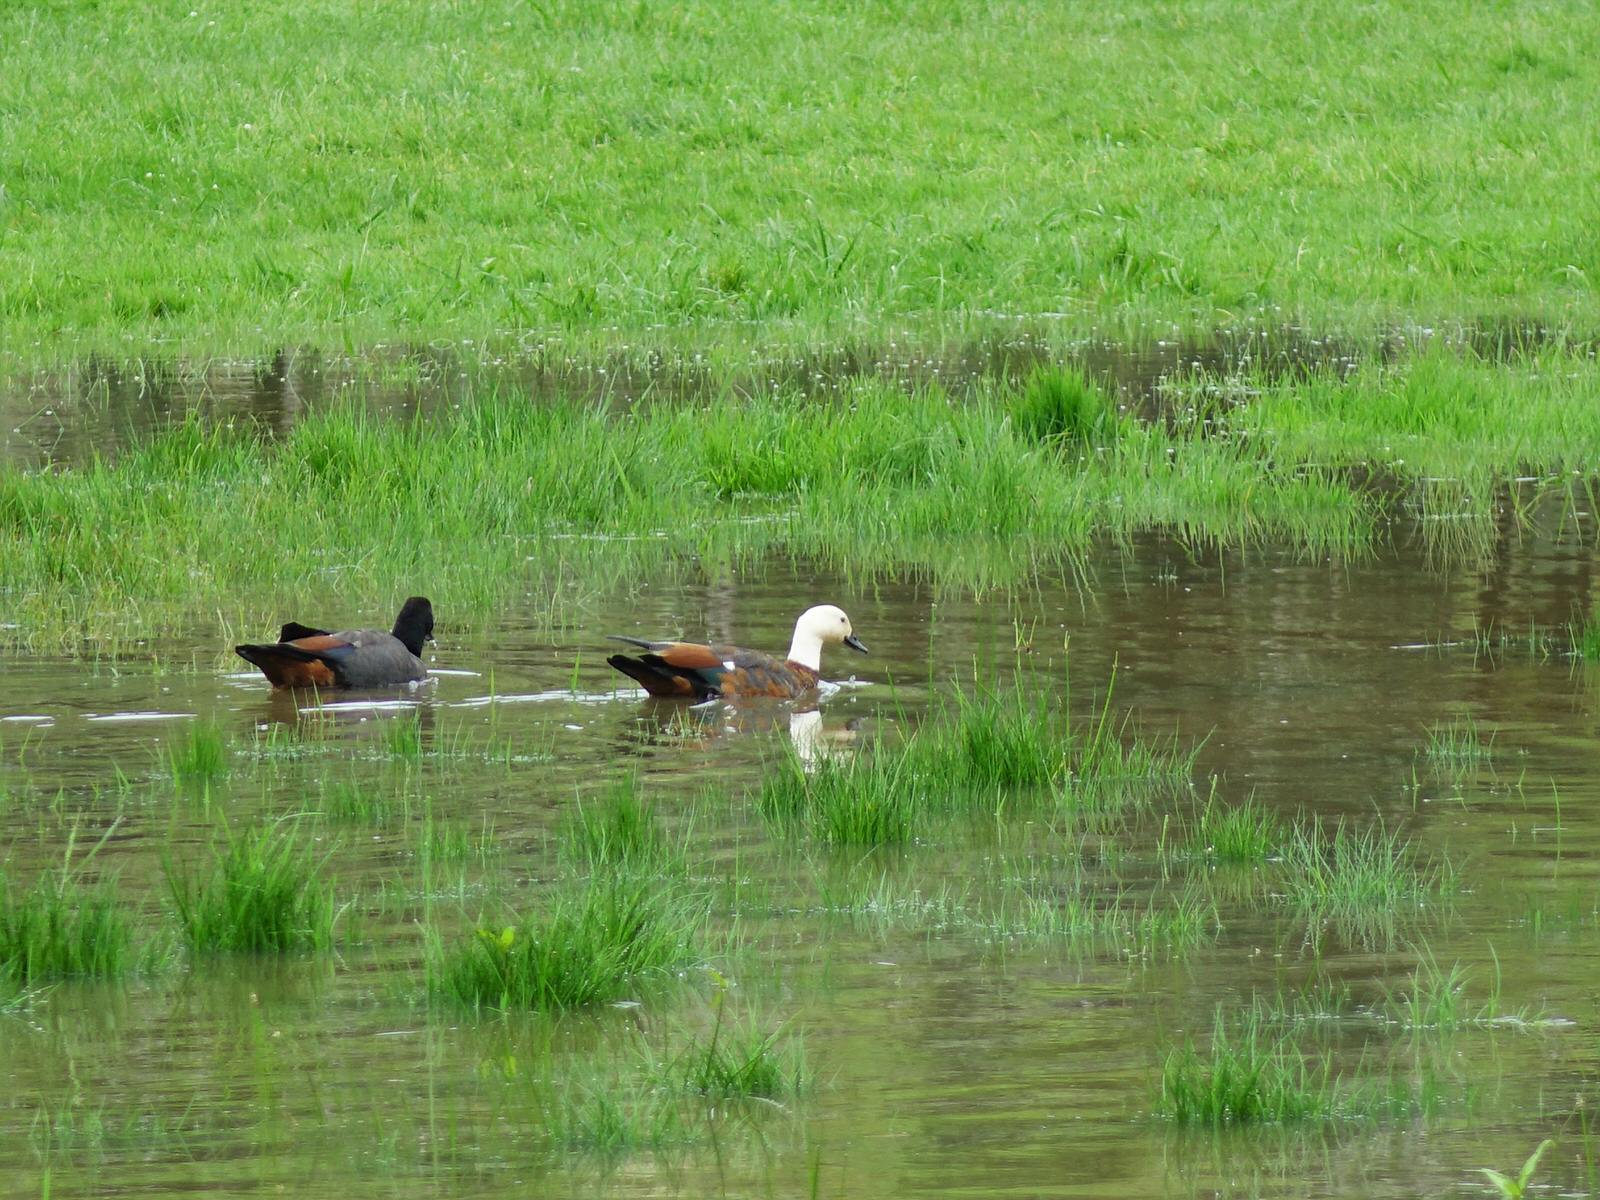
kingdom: Animalia
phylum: Chordata
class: Aves
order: Anseriformes
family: Anatidae
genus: Tadorna
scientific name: Tadorna variegata
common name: Paradise shelduck
